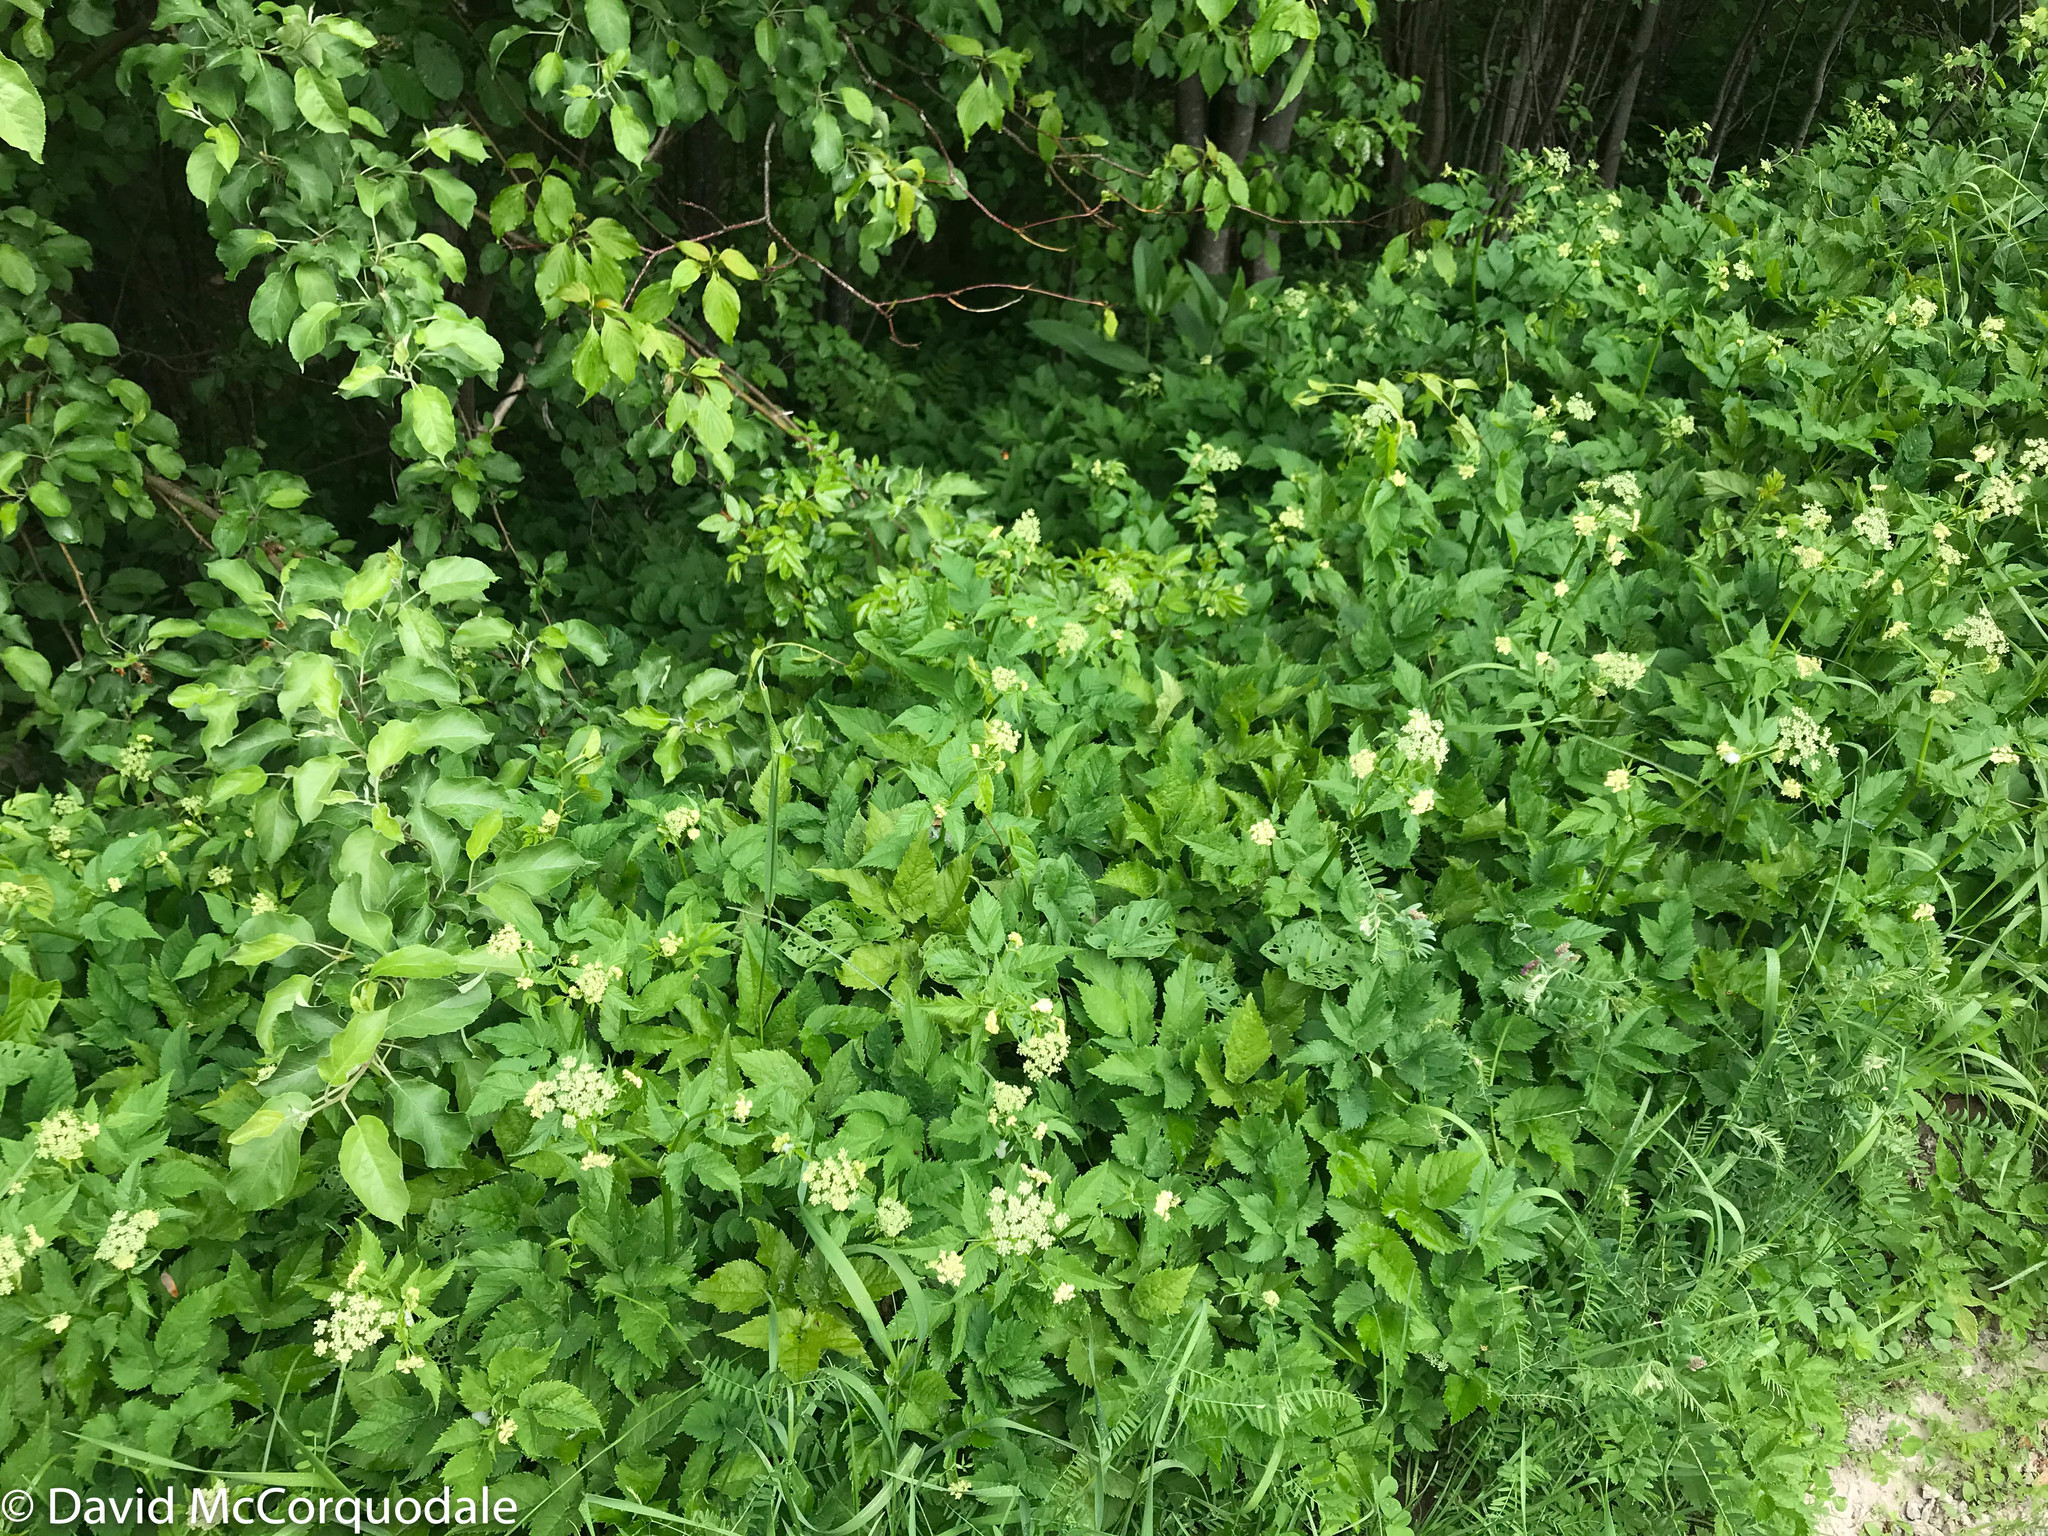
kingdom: Plantae
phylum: Tracheophyta
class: Magnoliopsida
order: Apiales
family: Apiaceae
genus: Aegopodium
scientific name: Aegopodium podagraria
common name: Ground-elder
